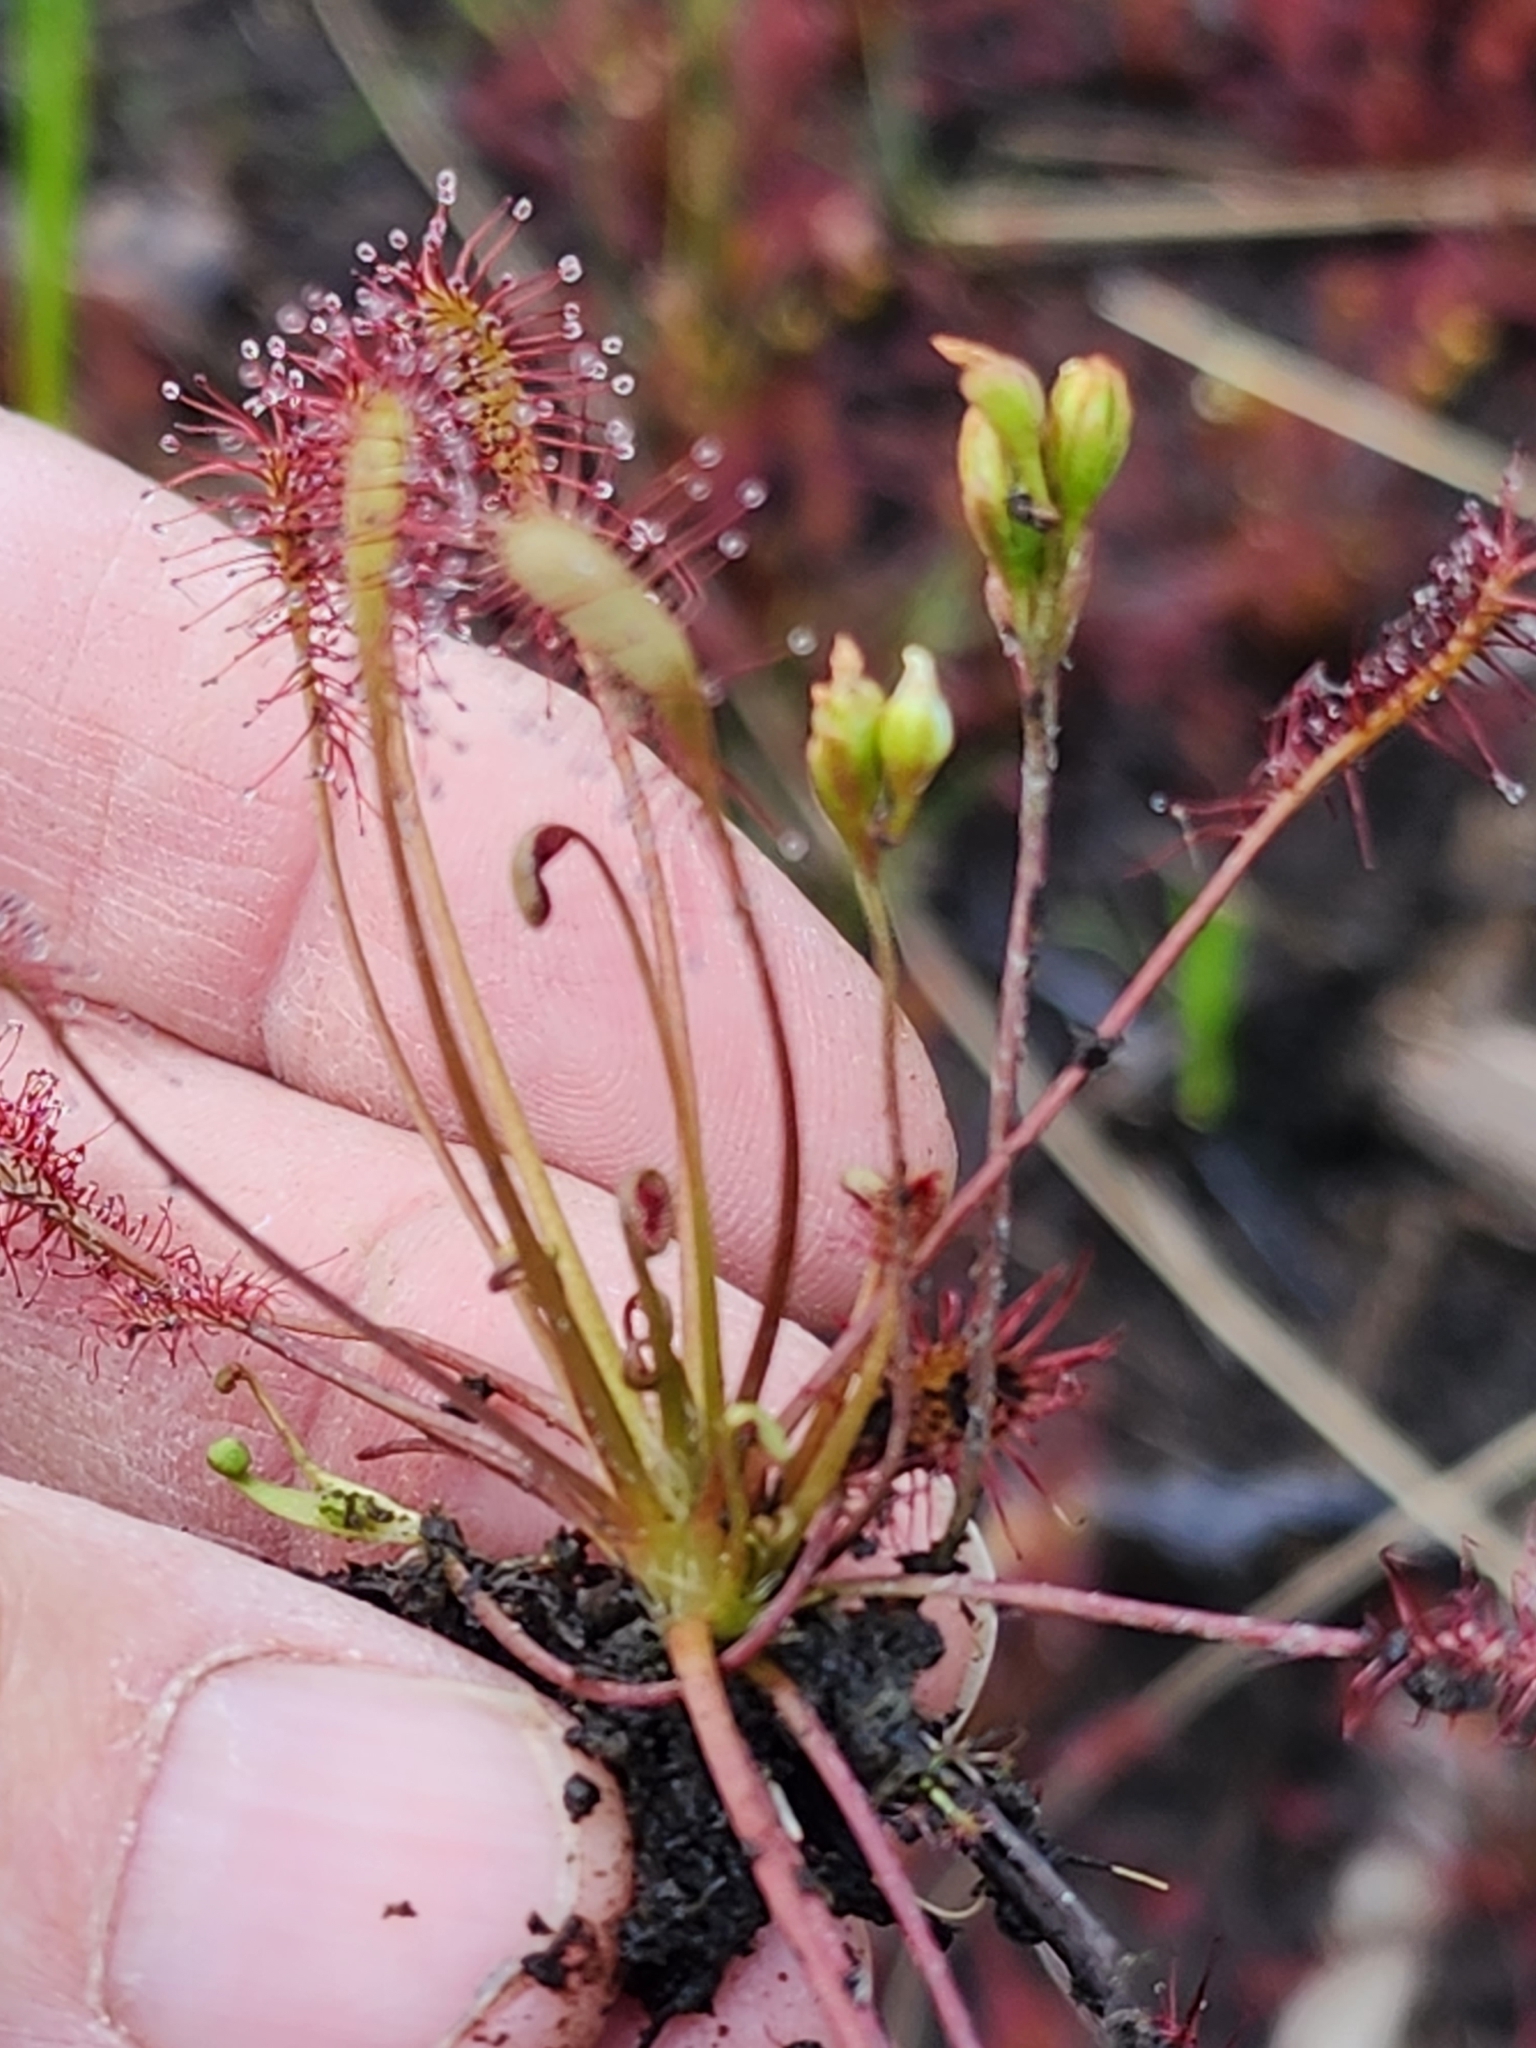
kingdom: Plantae
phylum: Tracheophyta
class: Magnoliopsida
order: Caryophyllales
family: Droseraceae
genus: Drosera
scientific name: Drosera intermedia
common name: Oblong-leaved sundew
